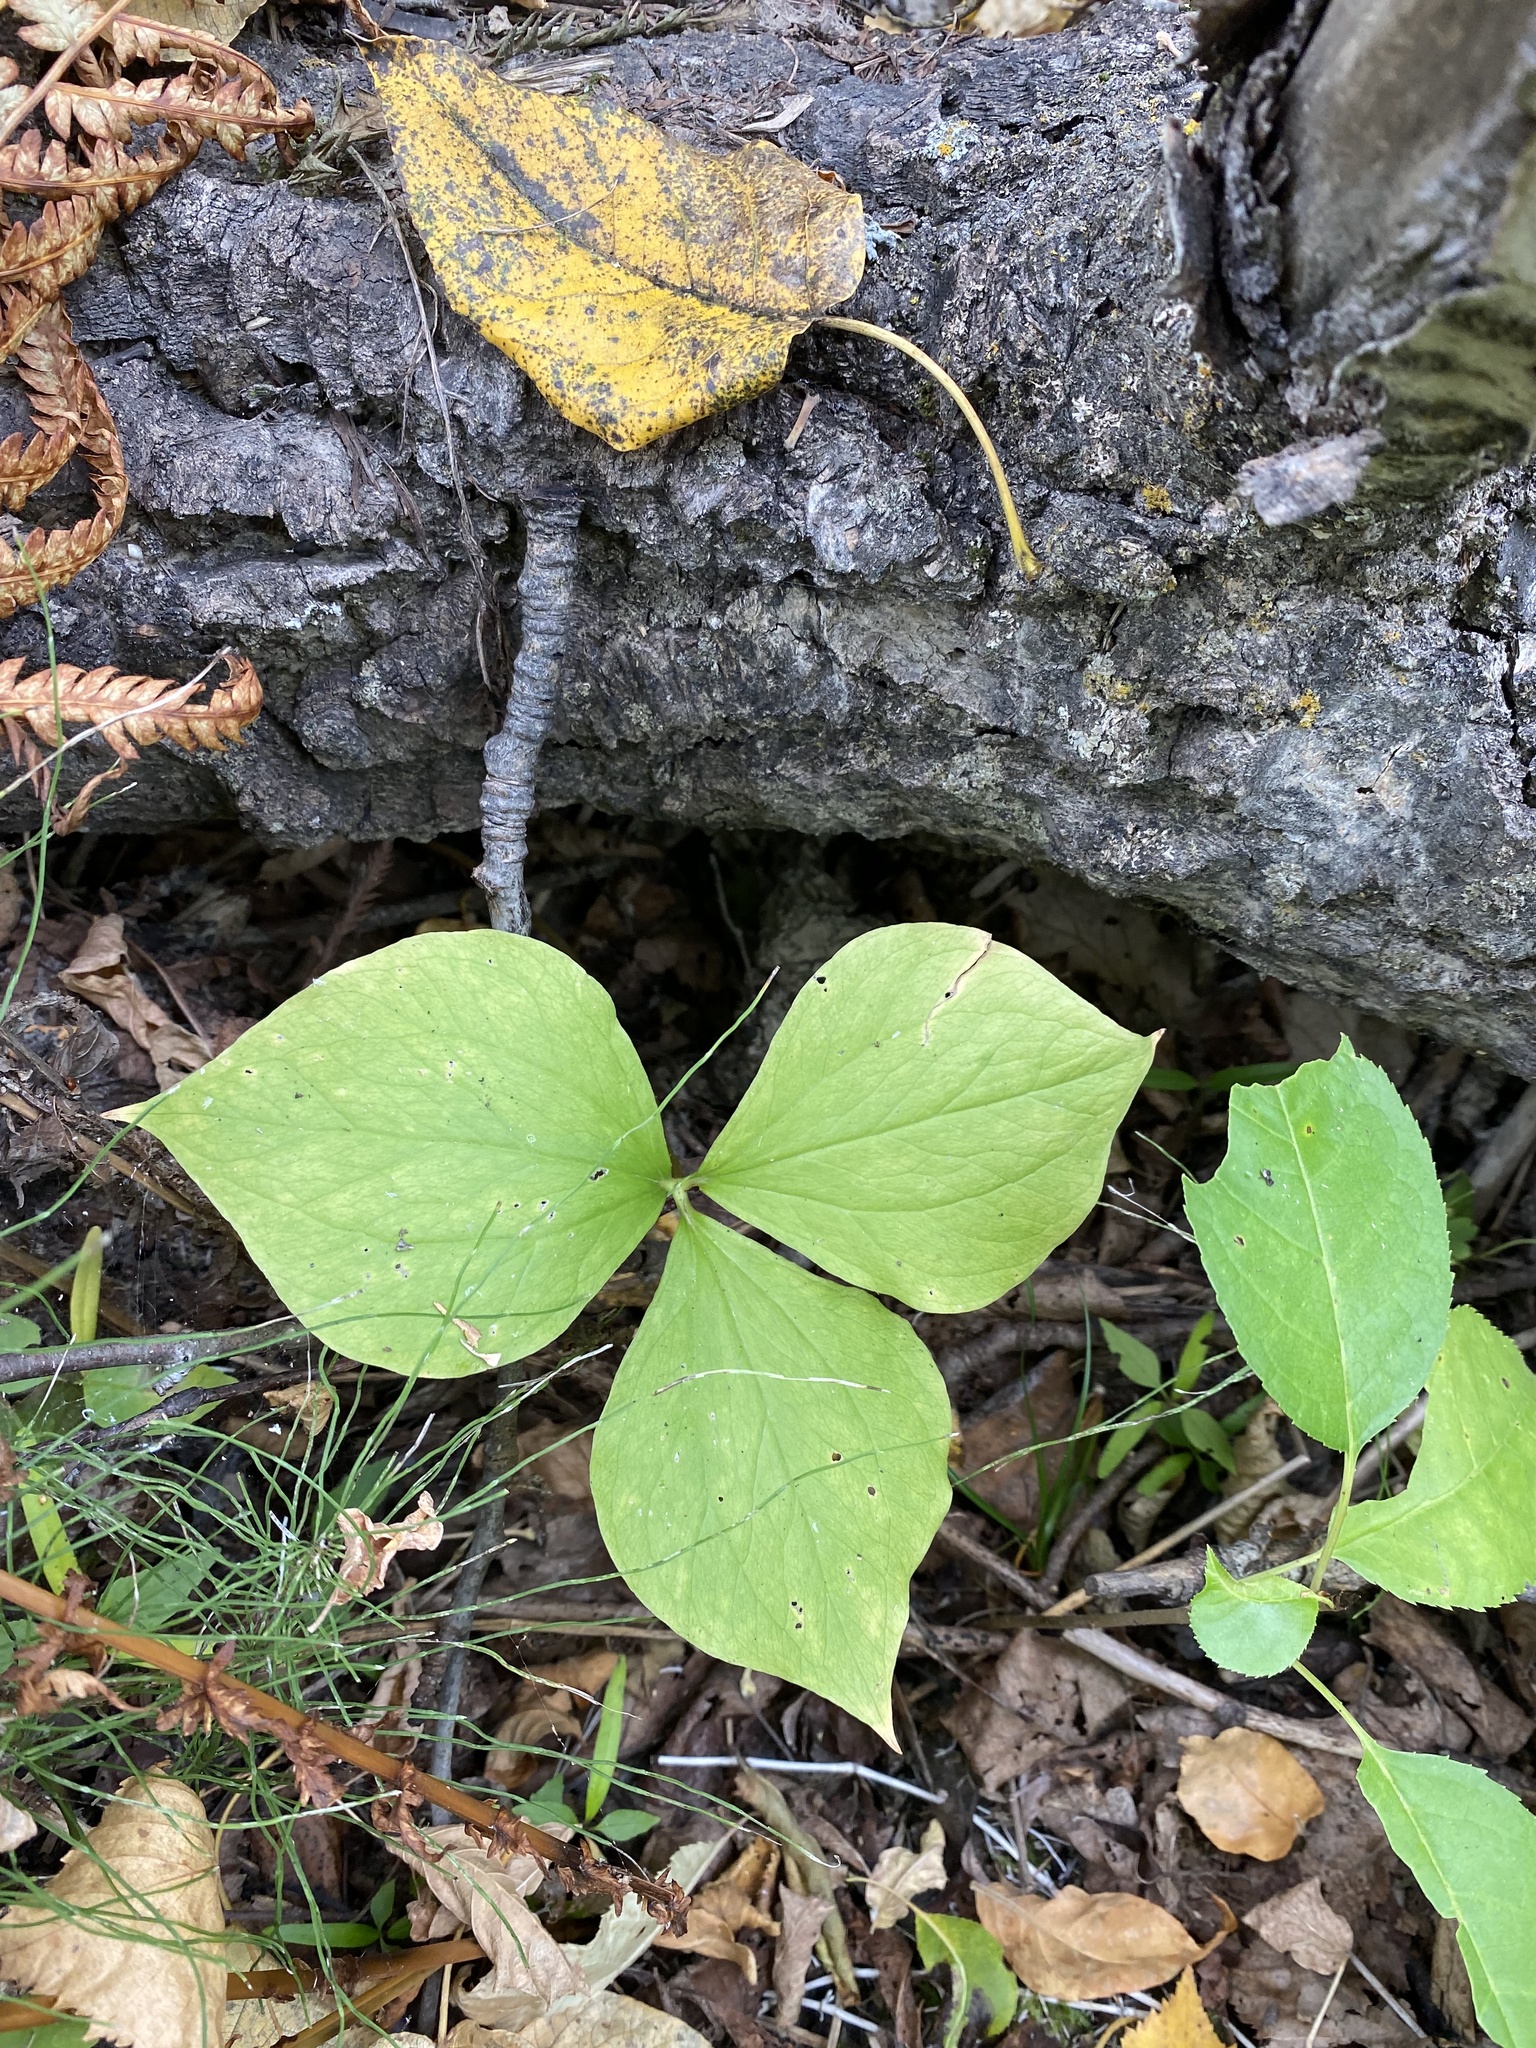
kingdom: Plantae
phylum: Tracheophyta
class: Liliopsida
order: Liliales
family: Melanthiaceae
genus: Trillium
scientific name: Trillium cernuum
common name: Nodding trillium
